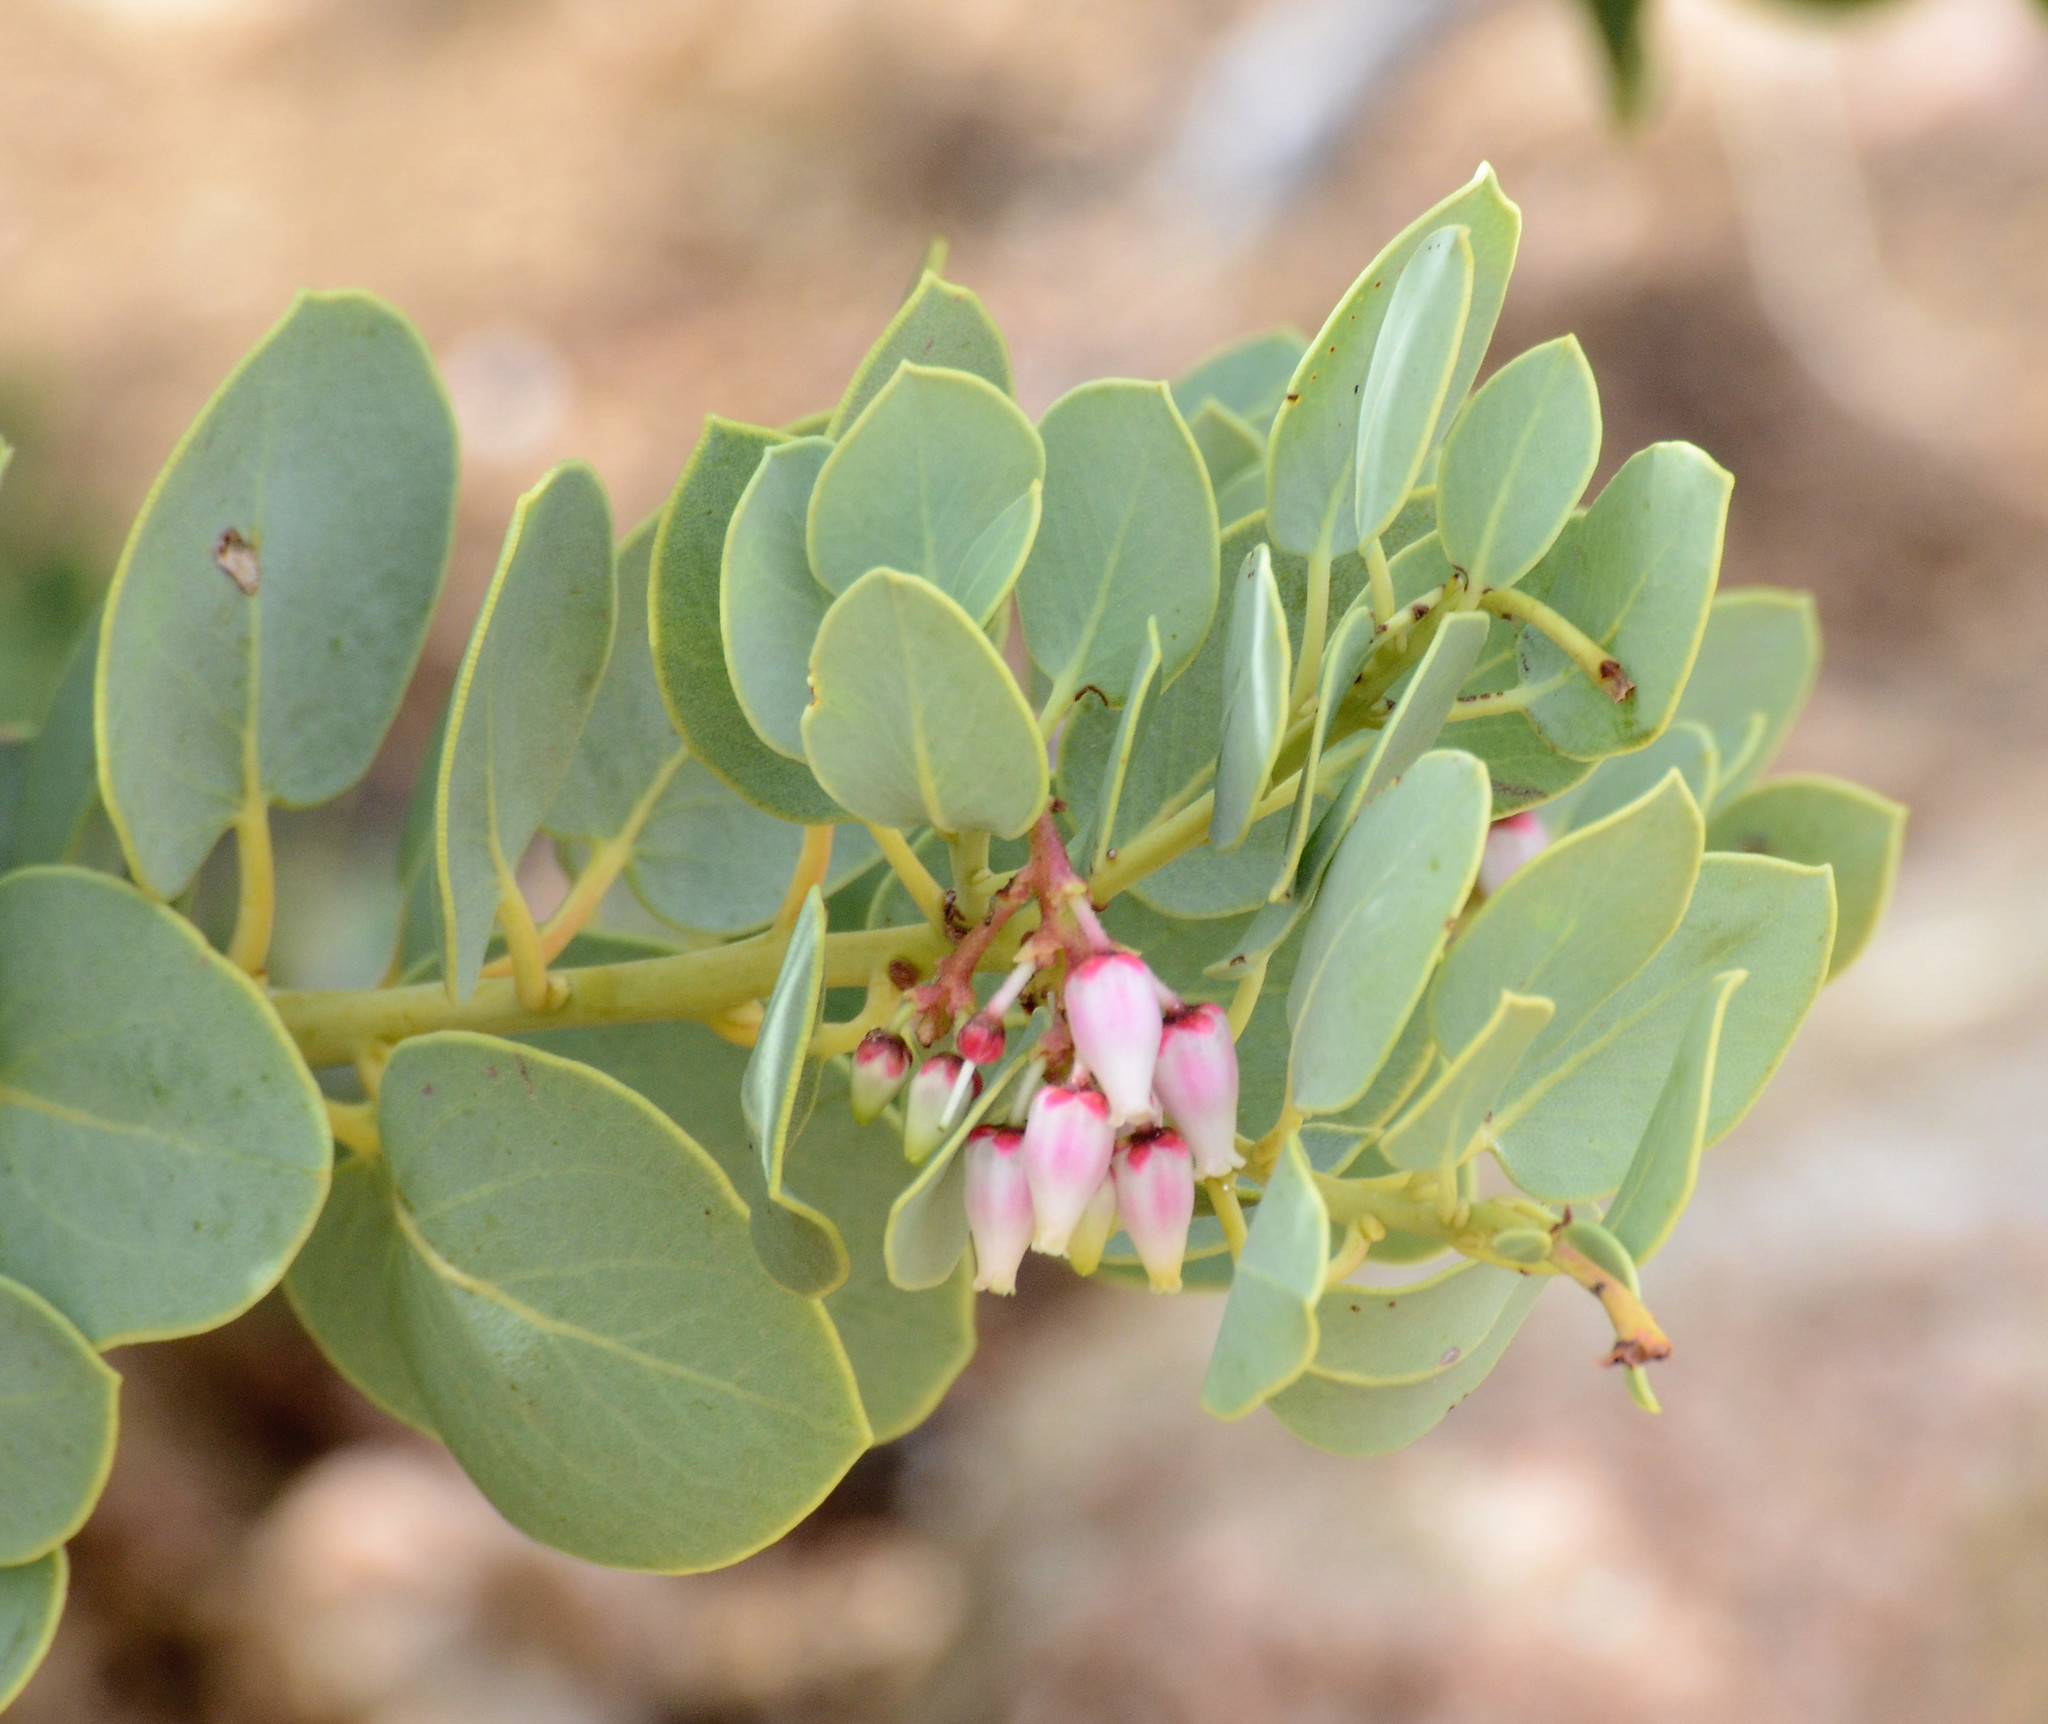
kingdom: Plantae
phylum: Tracheophyta
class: Magnoliopsida
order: Ericales
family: Ericaceae
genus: Arctostaphylos
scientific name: Arctostaphylos glauca
